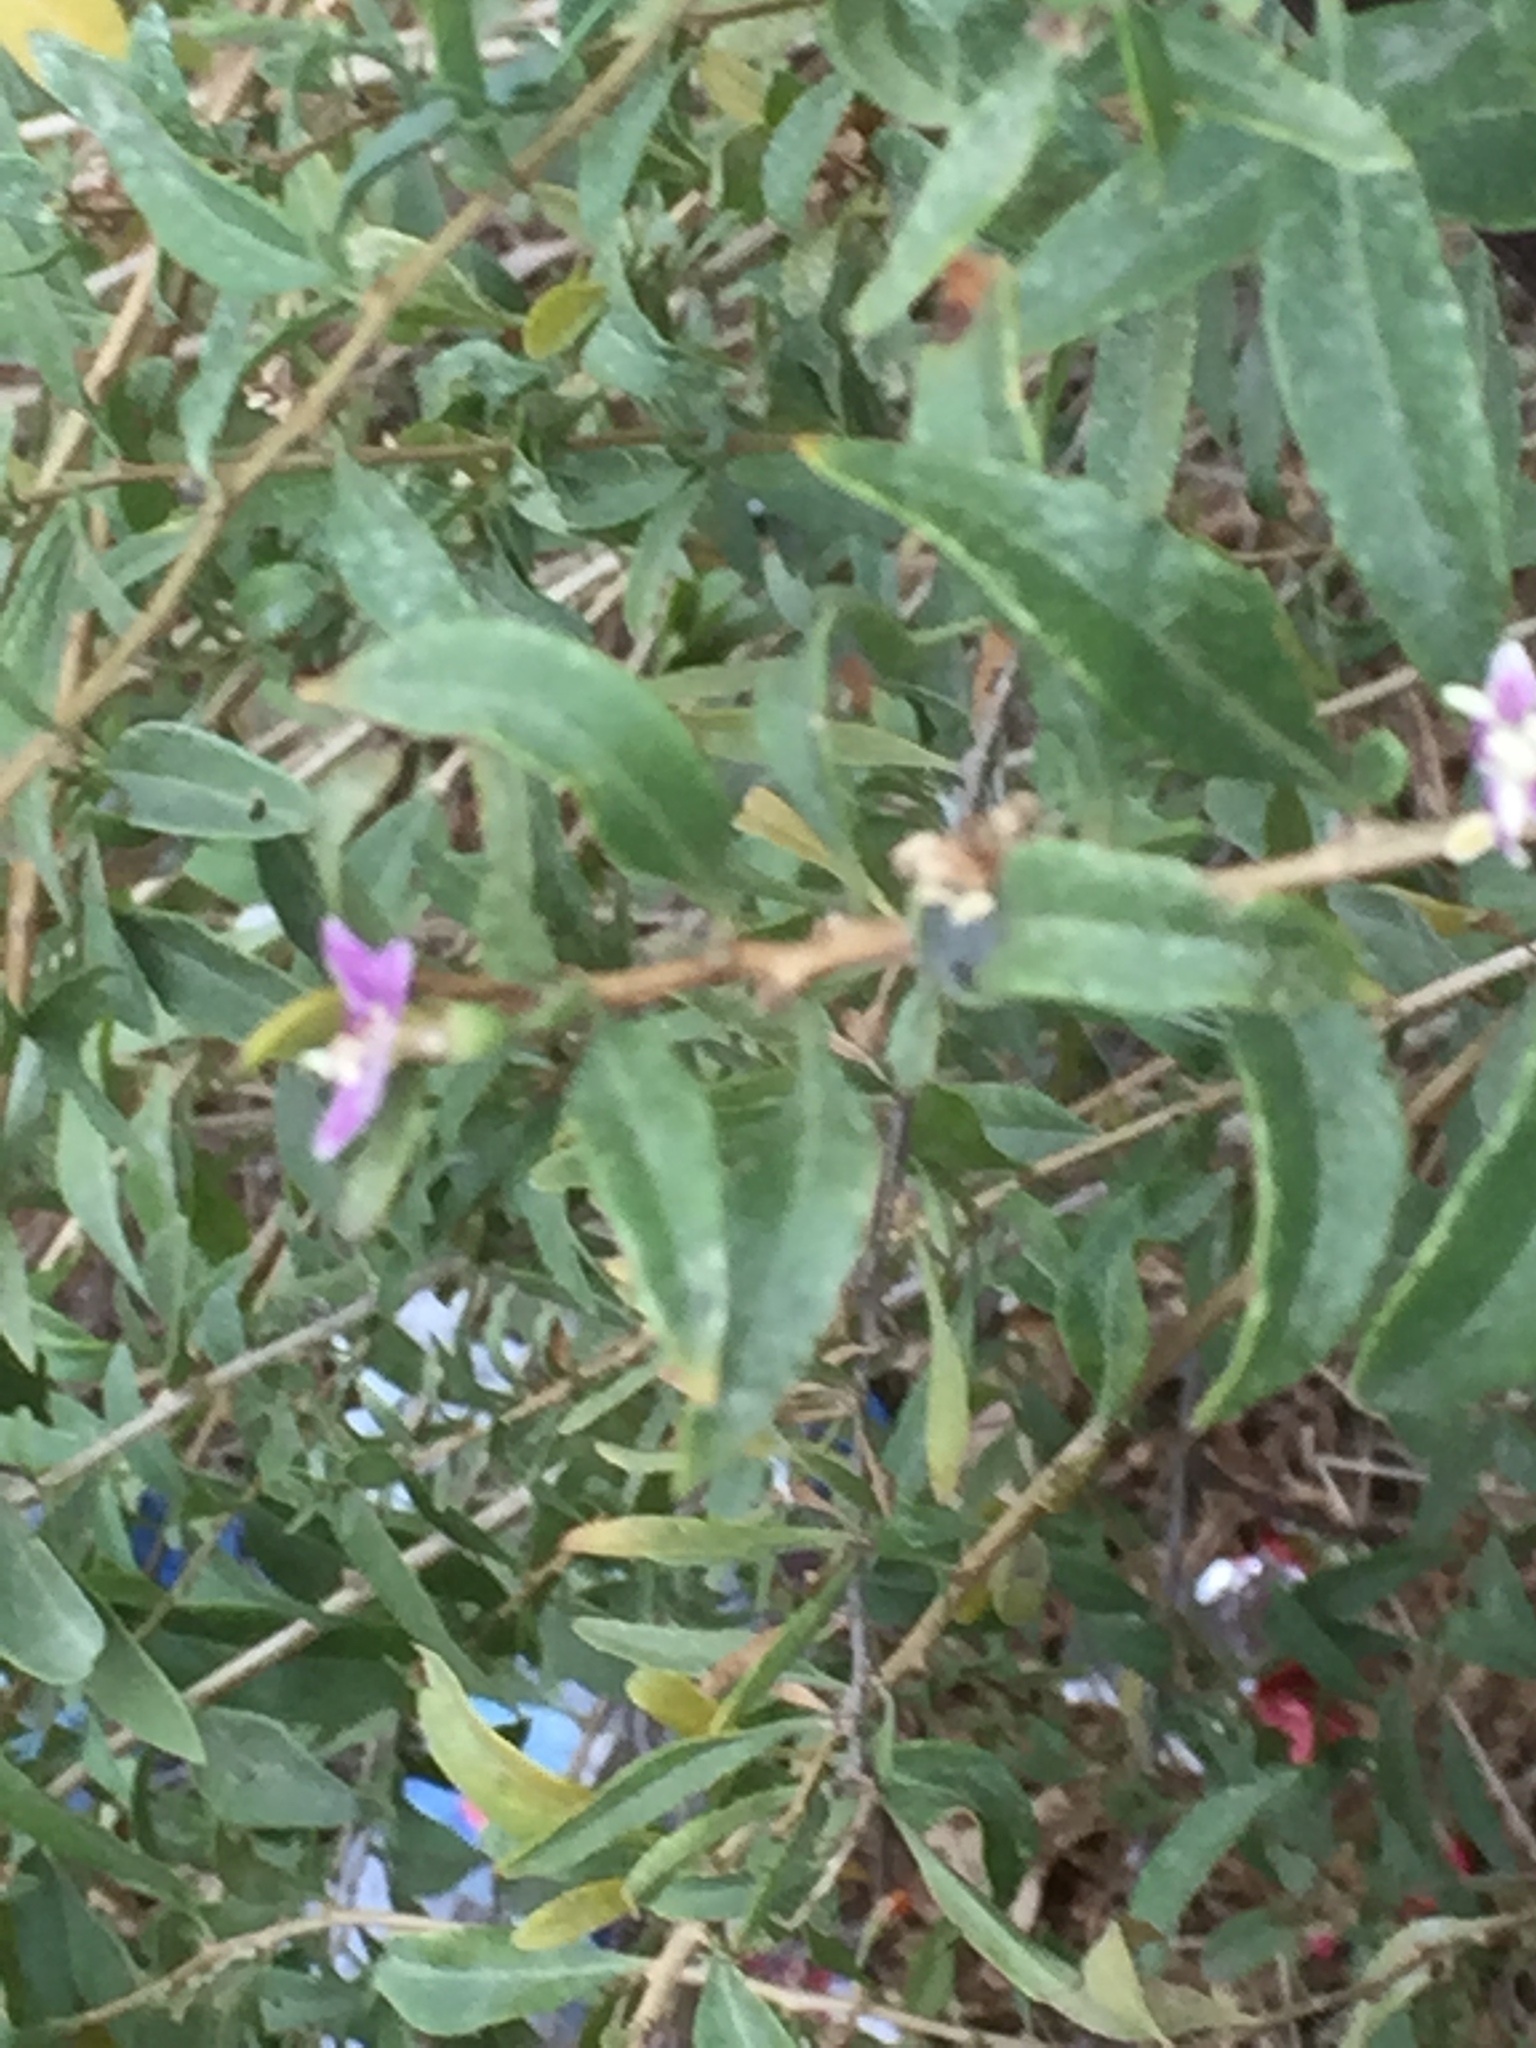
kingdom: Plantae
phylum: Tracheophyta
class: Magnoliopsida
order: Solanales
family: Solanaceae
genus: Lycium
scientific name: Lycium barbarum
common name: Duke of argyll's teaplant
